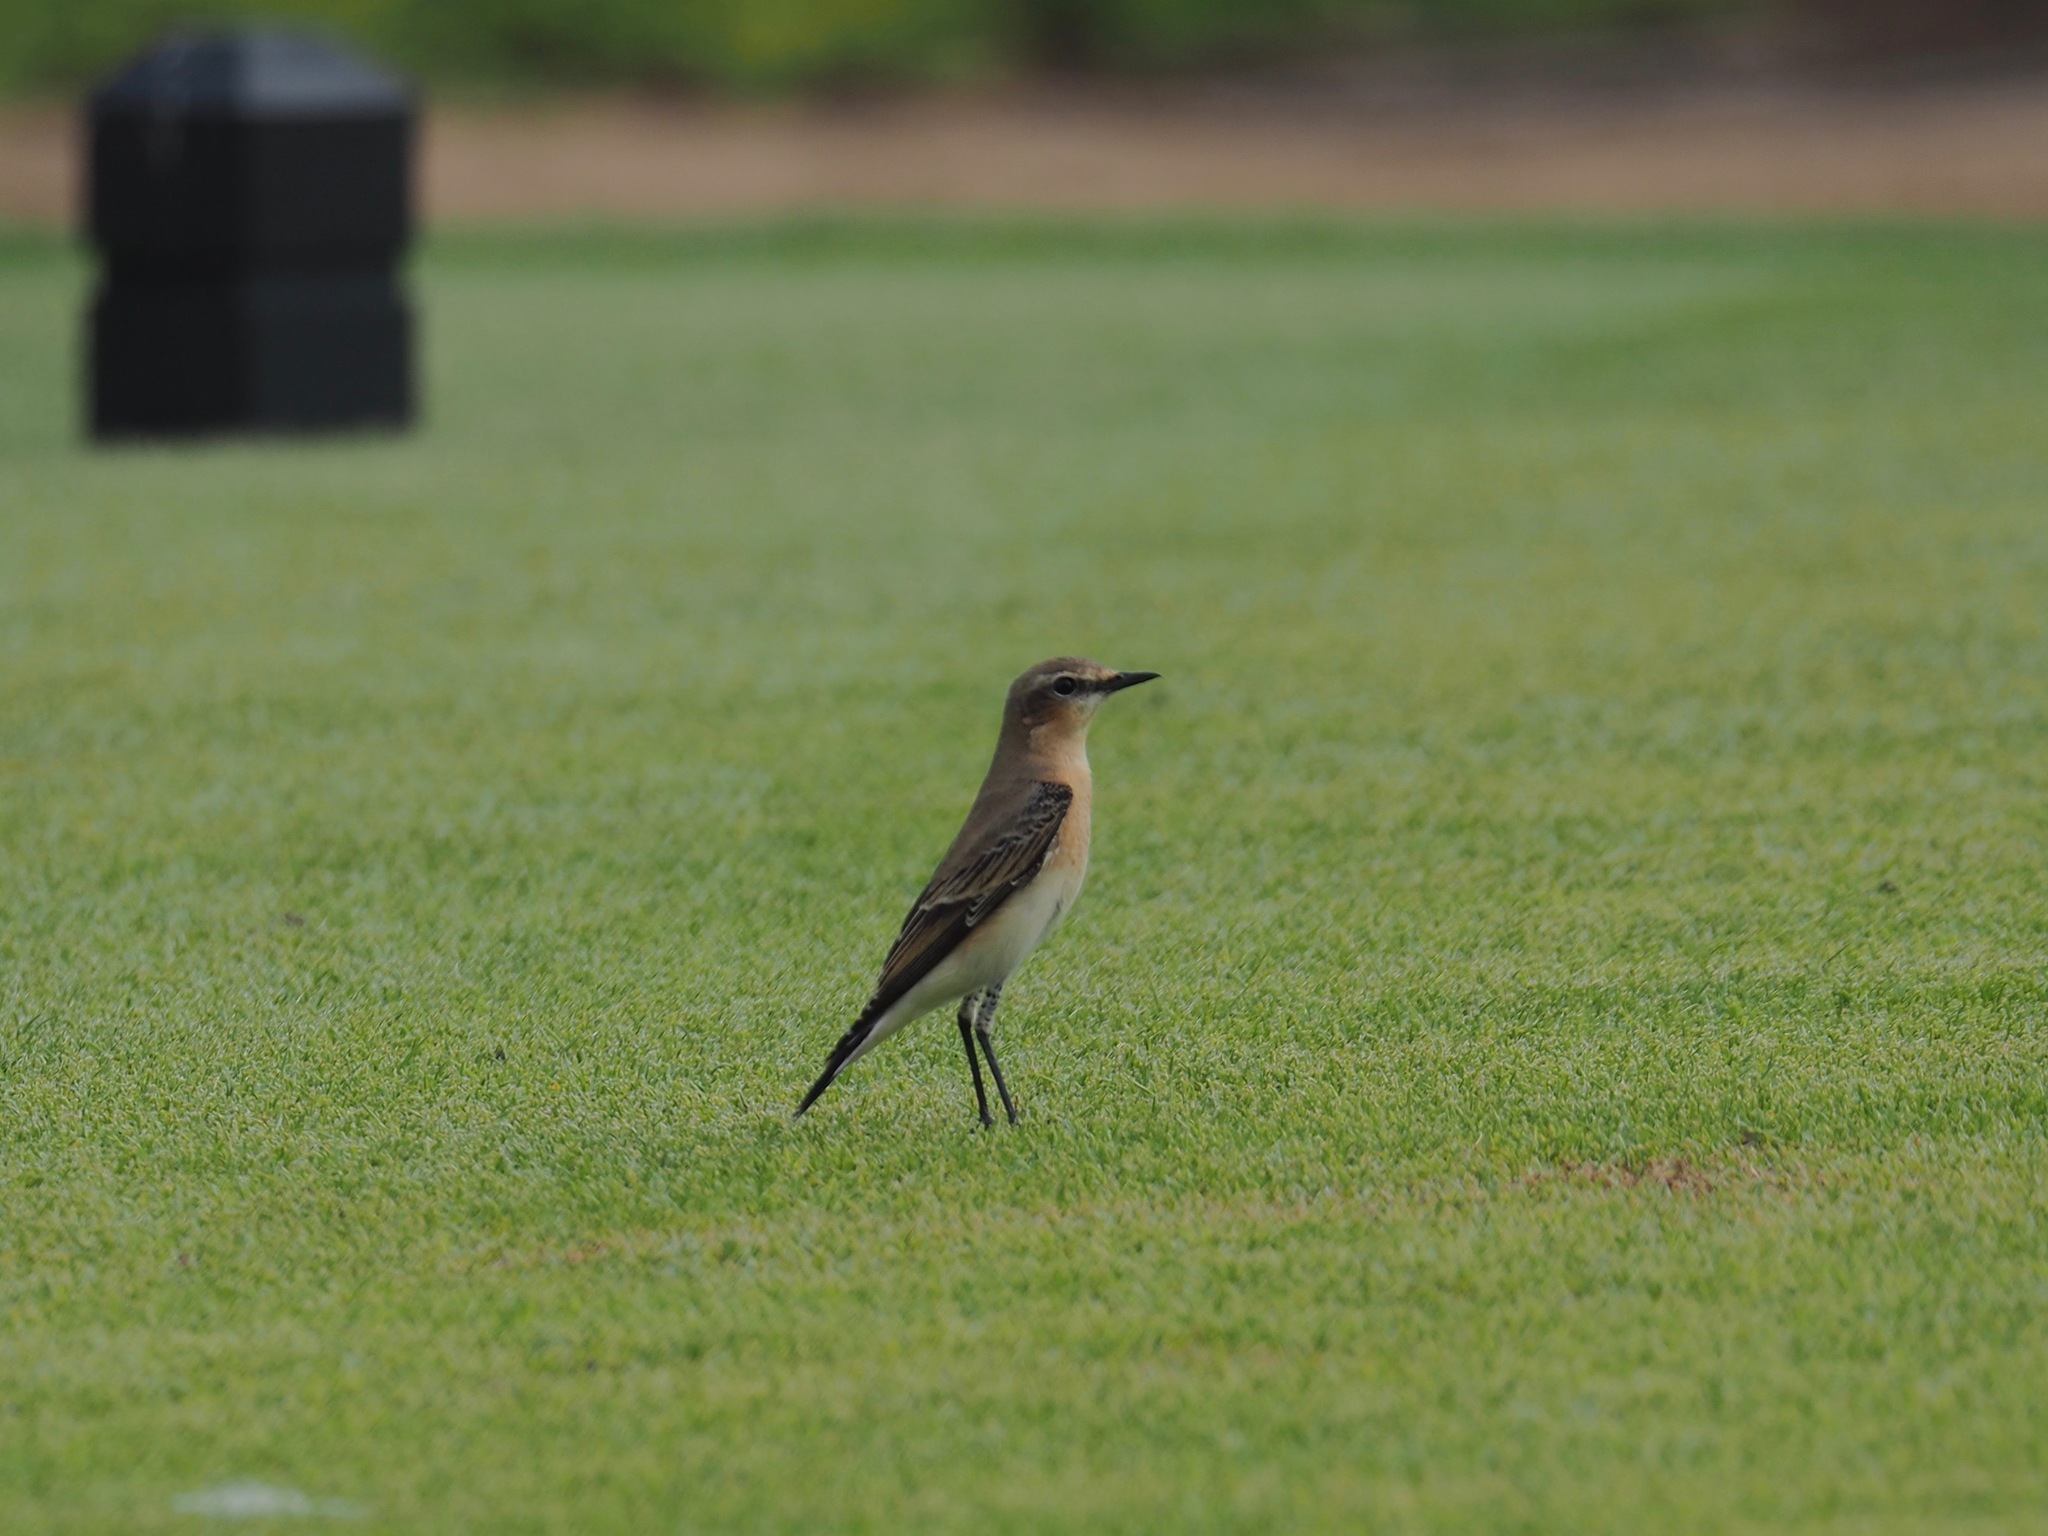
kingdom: Animalia
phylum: Chordata
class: Aves
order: Passeriformes
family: Muscicapidae
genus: Oenanthe
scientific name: Oenanthe oenanthe
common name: Northern wheatear
